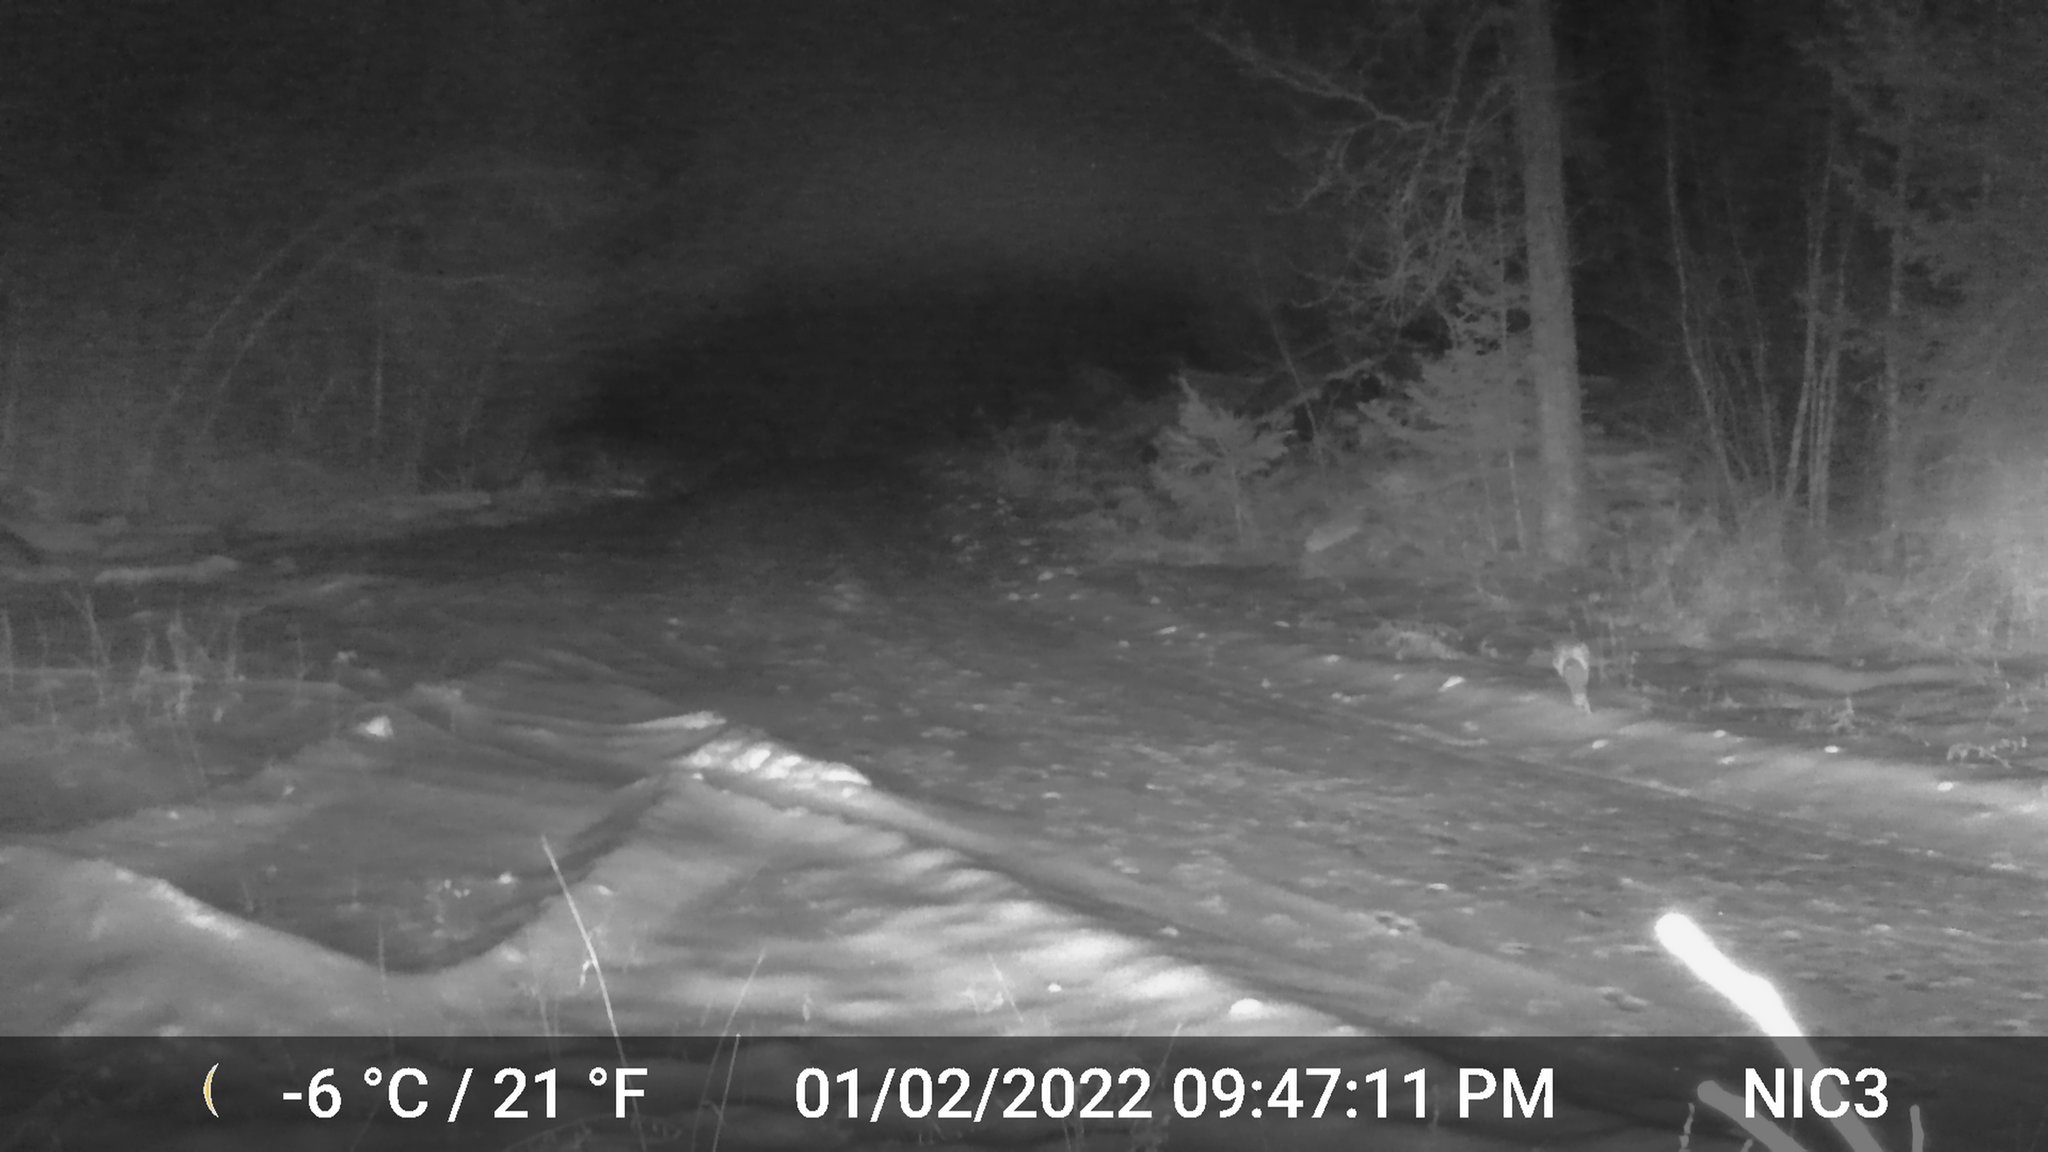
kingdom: Animalia
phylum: Chordata
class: Mammalia
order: Carnivora
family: Canidae
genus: Vulpes
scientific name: Vulpes vulpes
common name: Red fox
